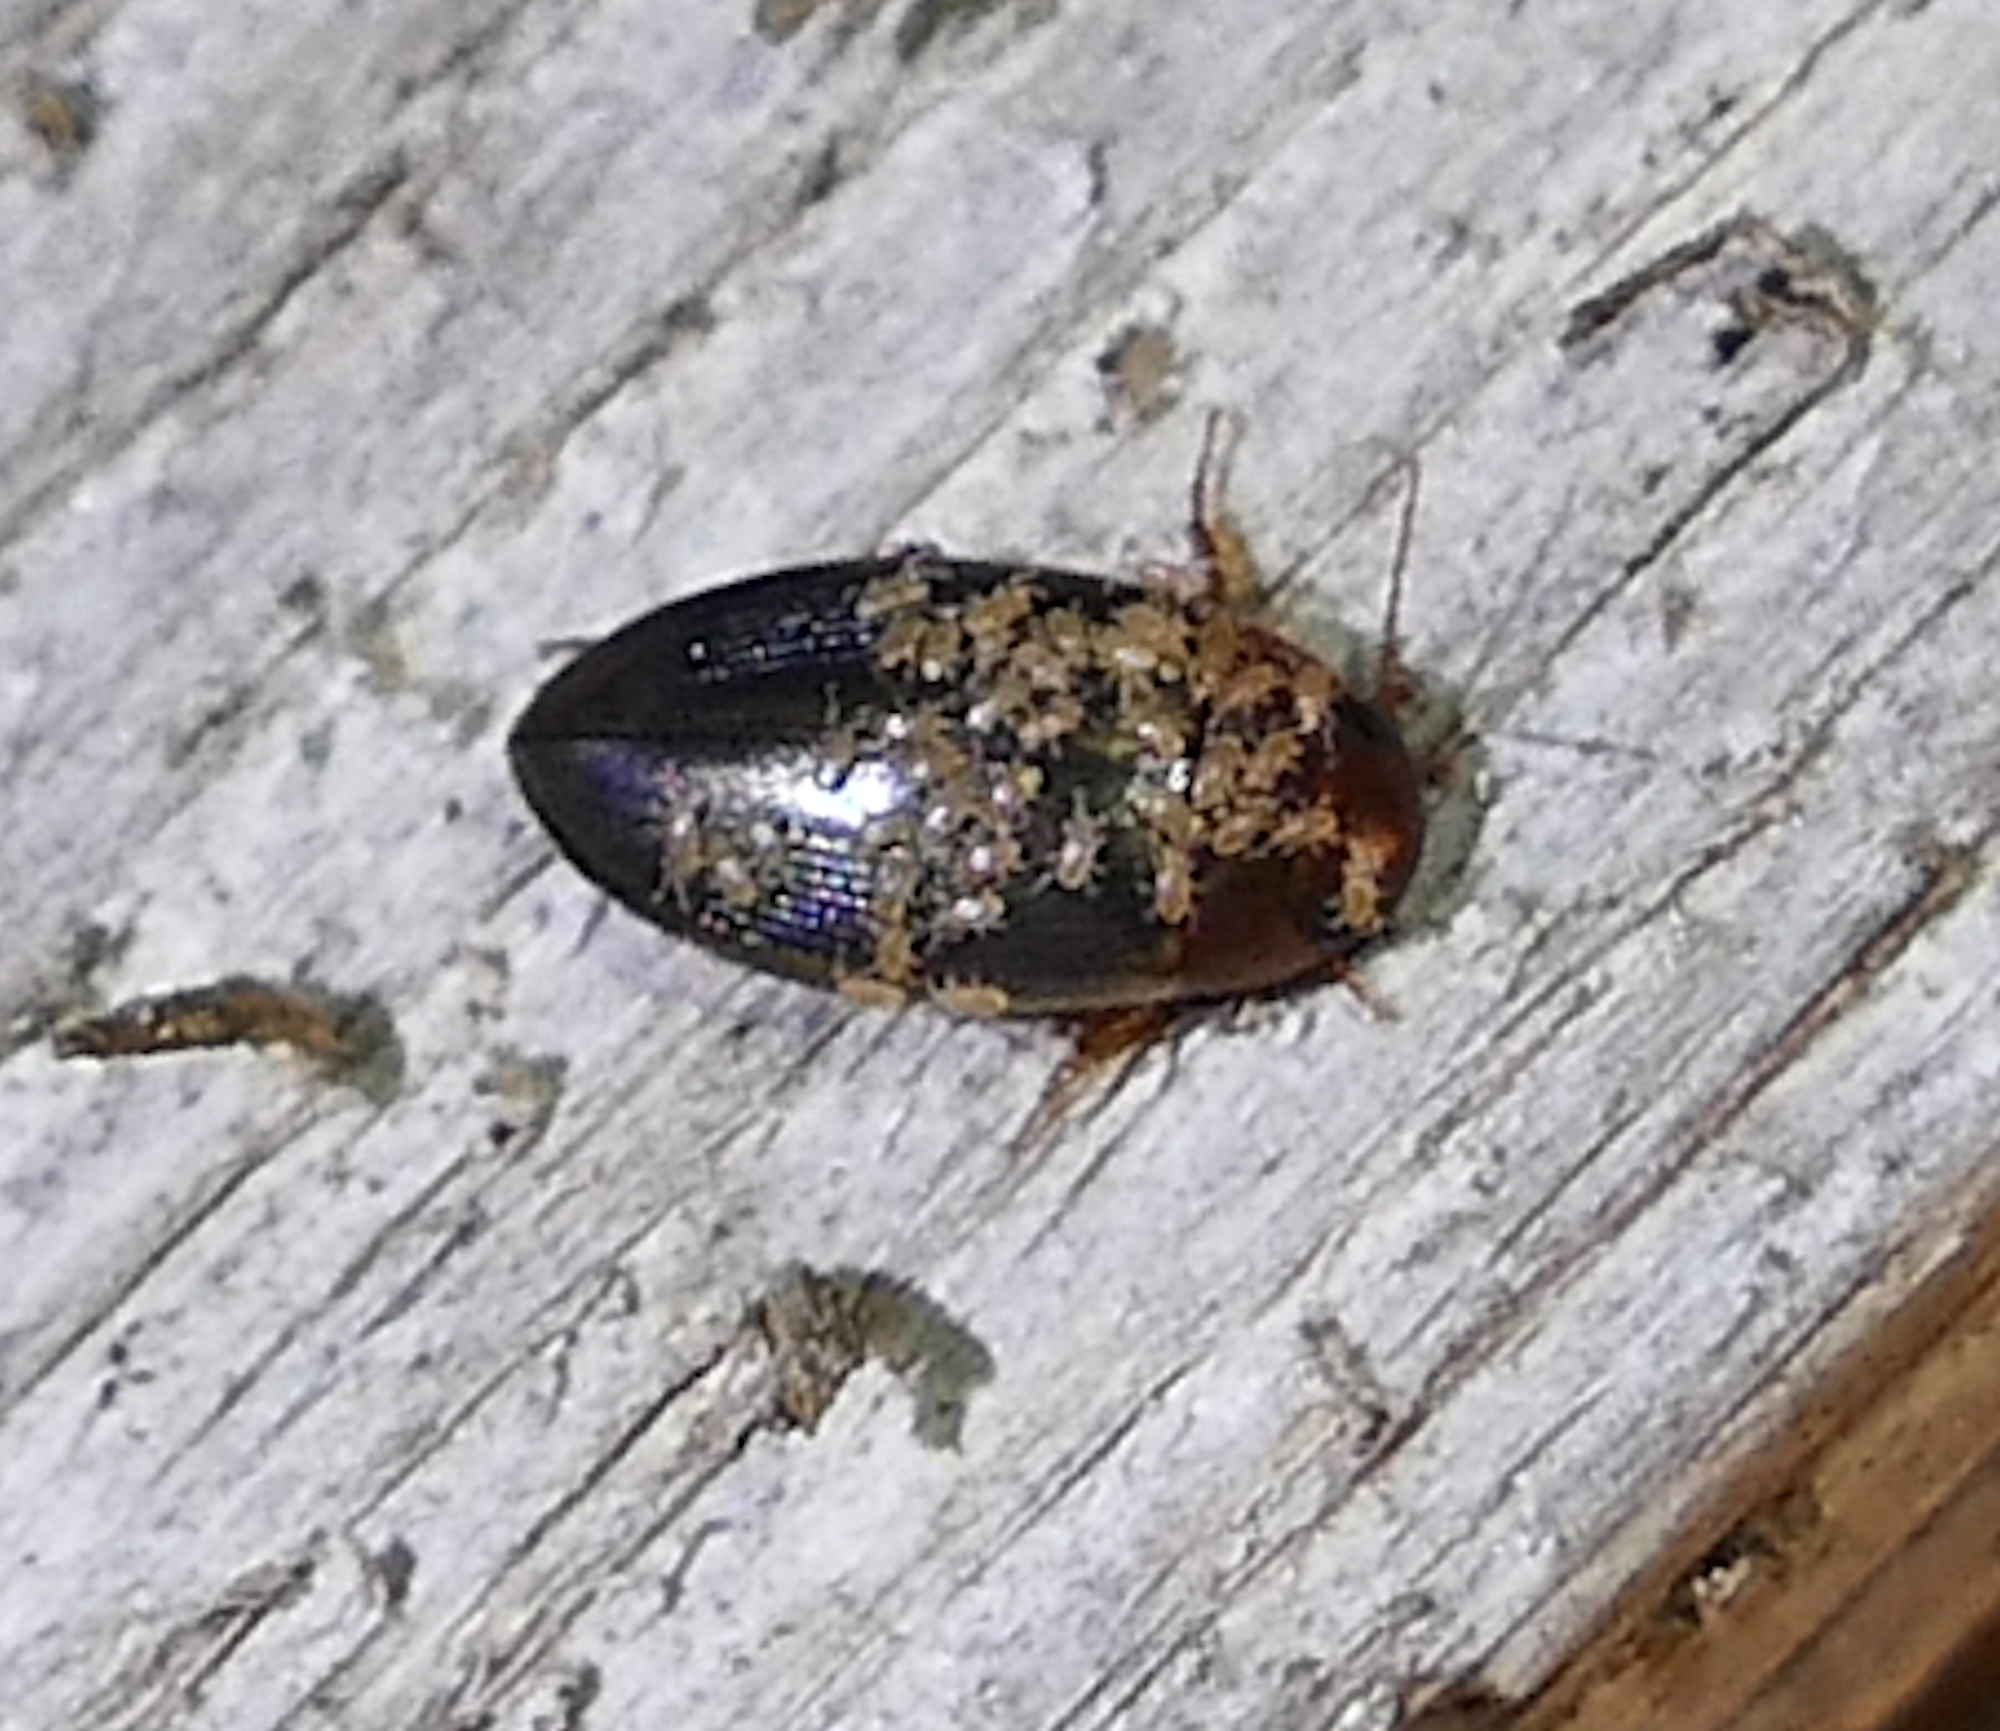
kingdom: Animalia
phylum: Arthropoda
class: Insecta
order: Coleoptera
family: Dytiscidae
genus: Copelatus
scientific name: Copelatus chevrolati
